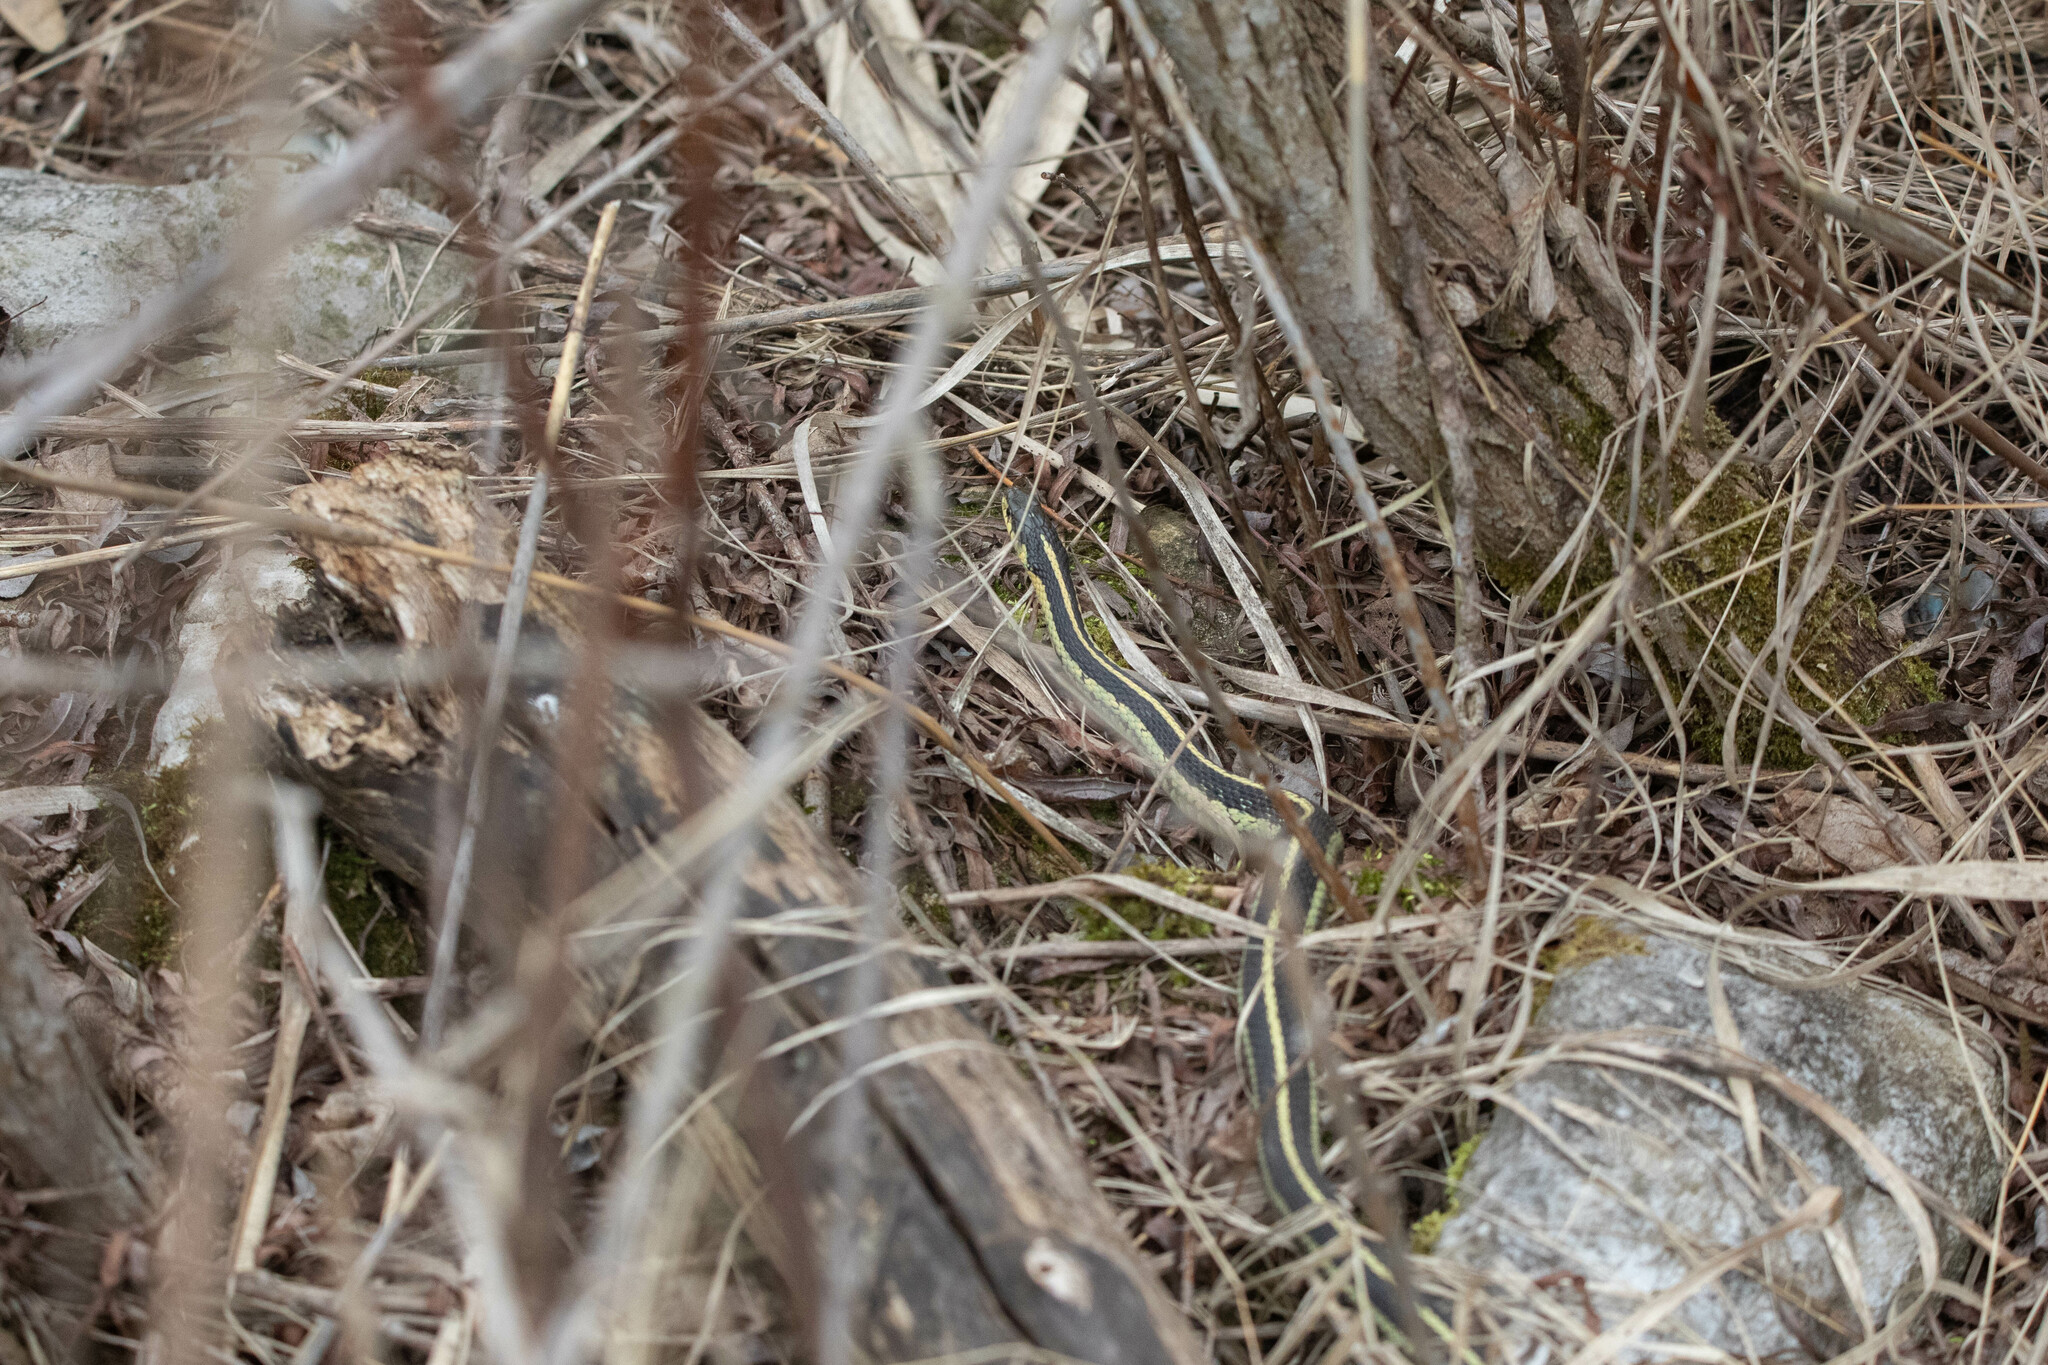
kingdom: Animalia
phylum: Chordata
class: Squamata
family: Colubridae
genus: Thamnophis
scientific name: Thamnophis sirtalis
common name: Common garter snake
